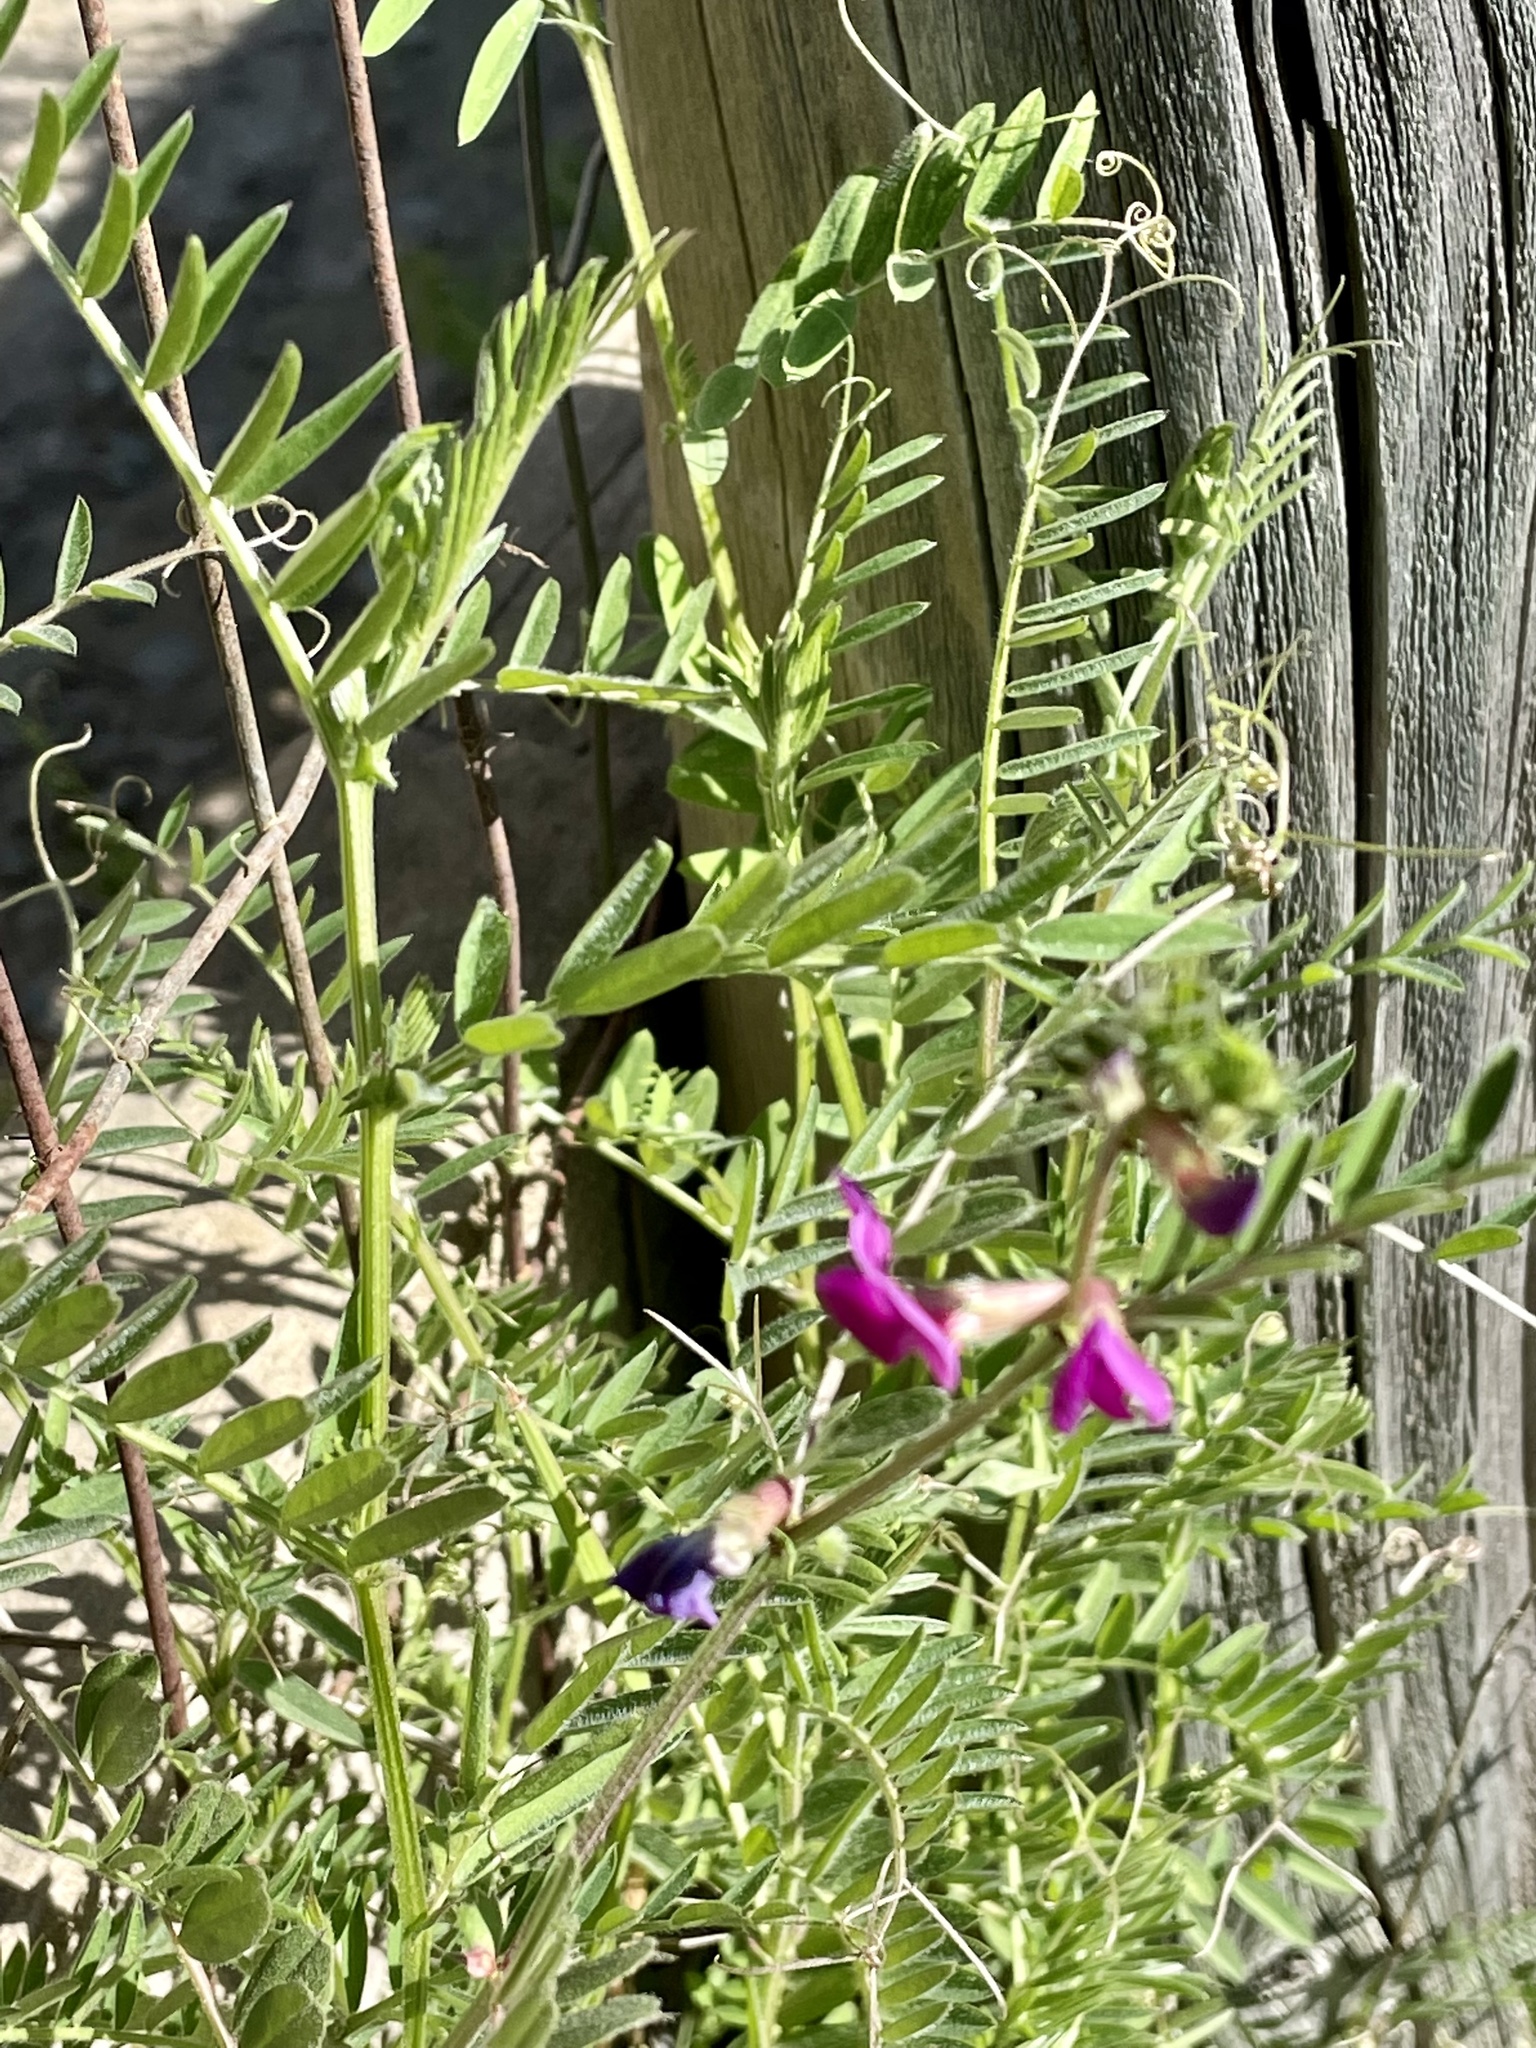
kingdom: Plantae
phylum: Tracheophyta
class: Magnoliopsida
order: Fabales
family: Fabaceae
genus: Vicia
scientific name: Vicia sativa
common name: Garden vetch
